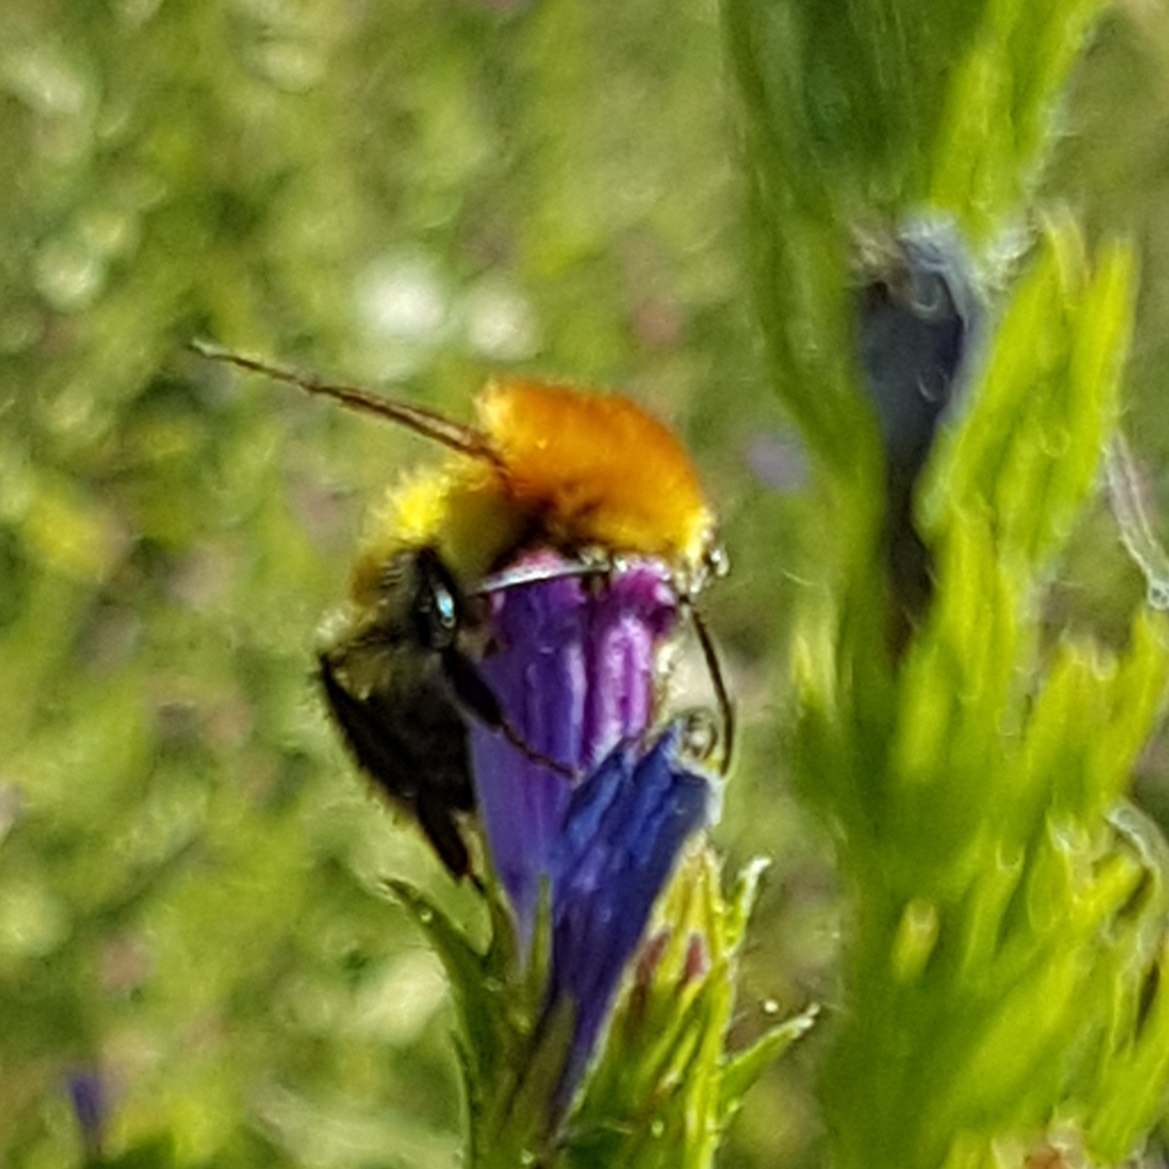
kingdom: Animalia
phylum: Arthropoda
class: Insecta
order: Hymenoptera
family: Apidae
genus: Bombus
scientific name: Bombus pascuorum
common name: Common carder bee
